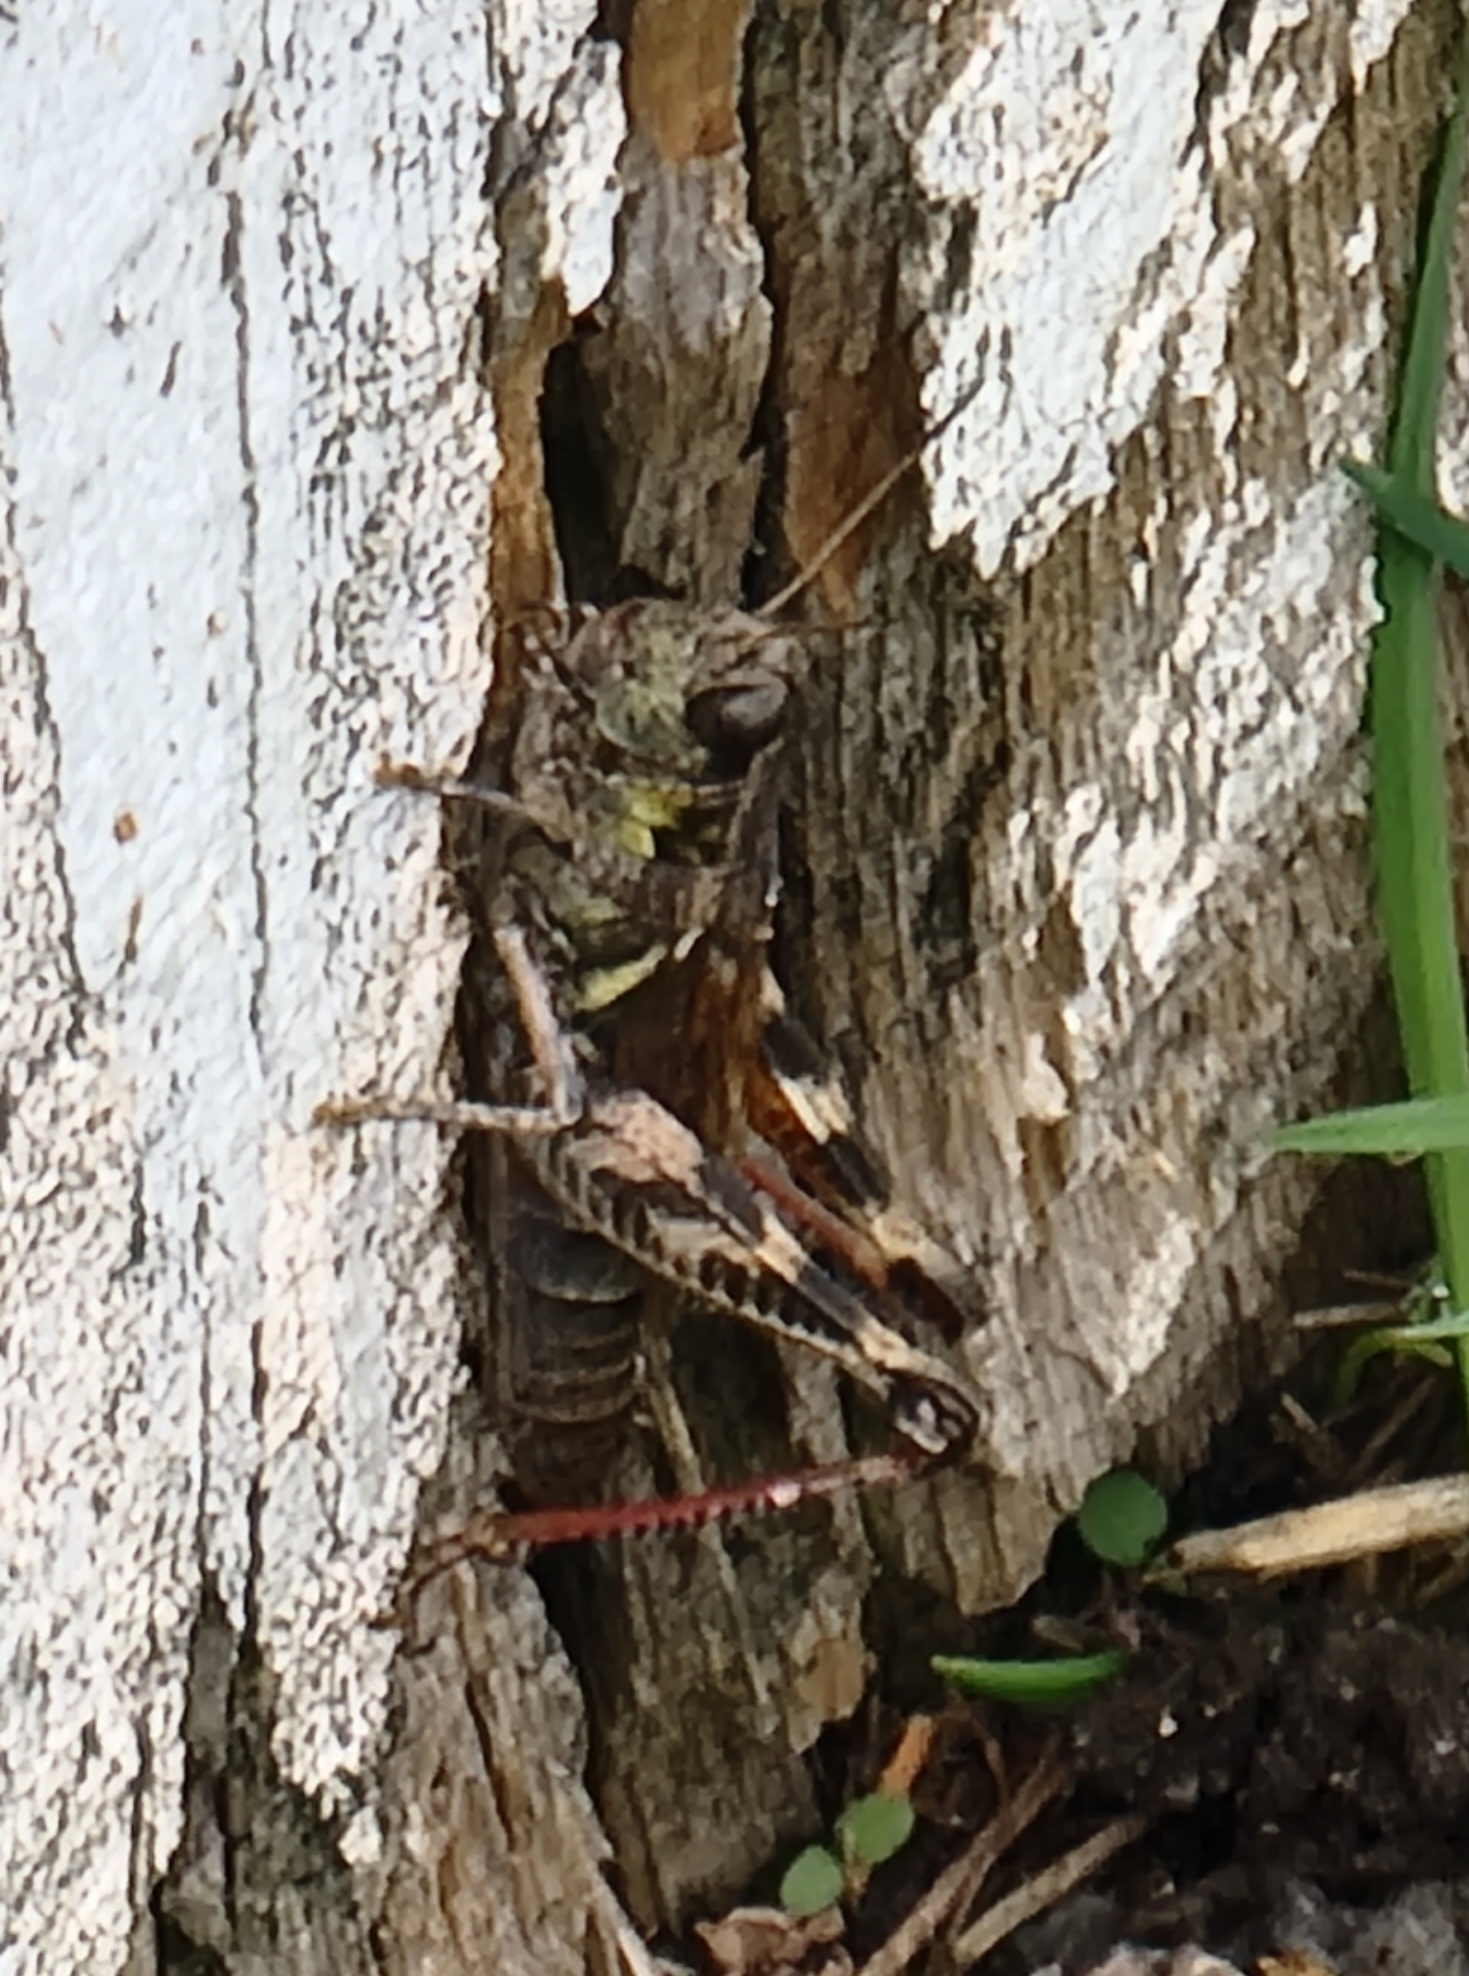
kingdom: Animalia
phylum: Arthropoda
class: Insecta
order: Orthoptera
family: Acrididae
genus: Melanoplus
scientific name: Melanoplus sanguinipes
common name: Migratory grasshopper
